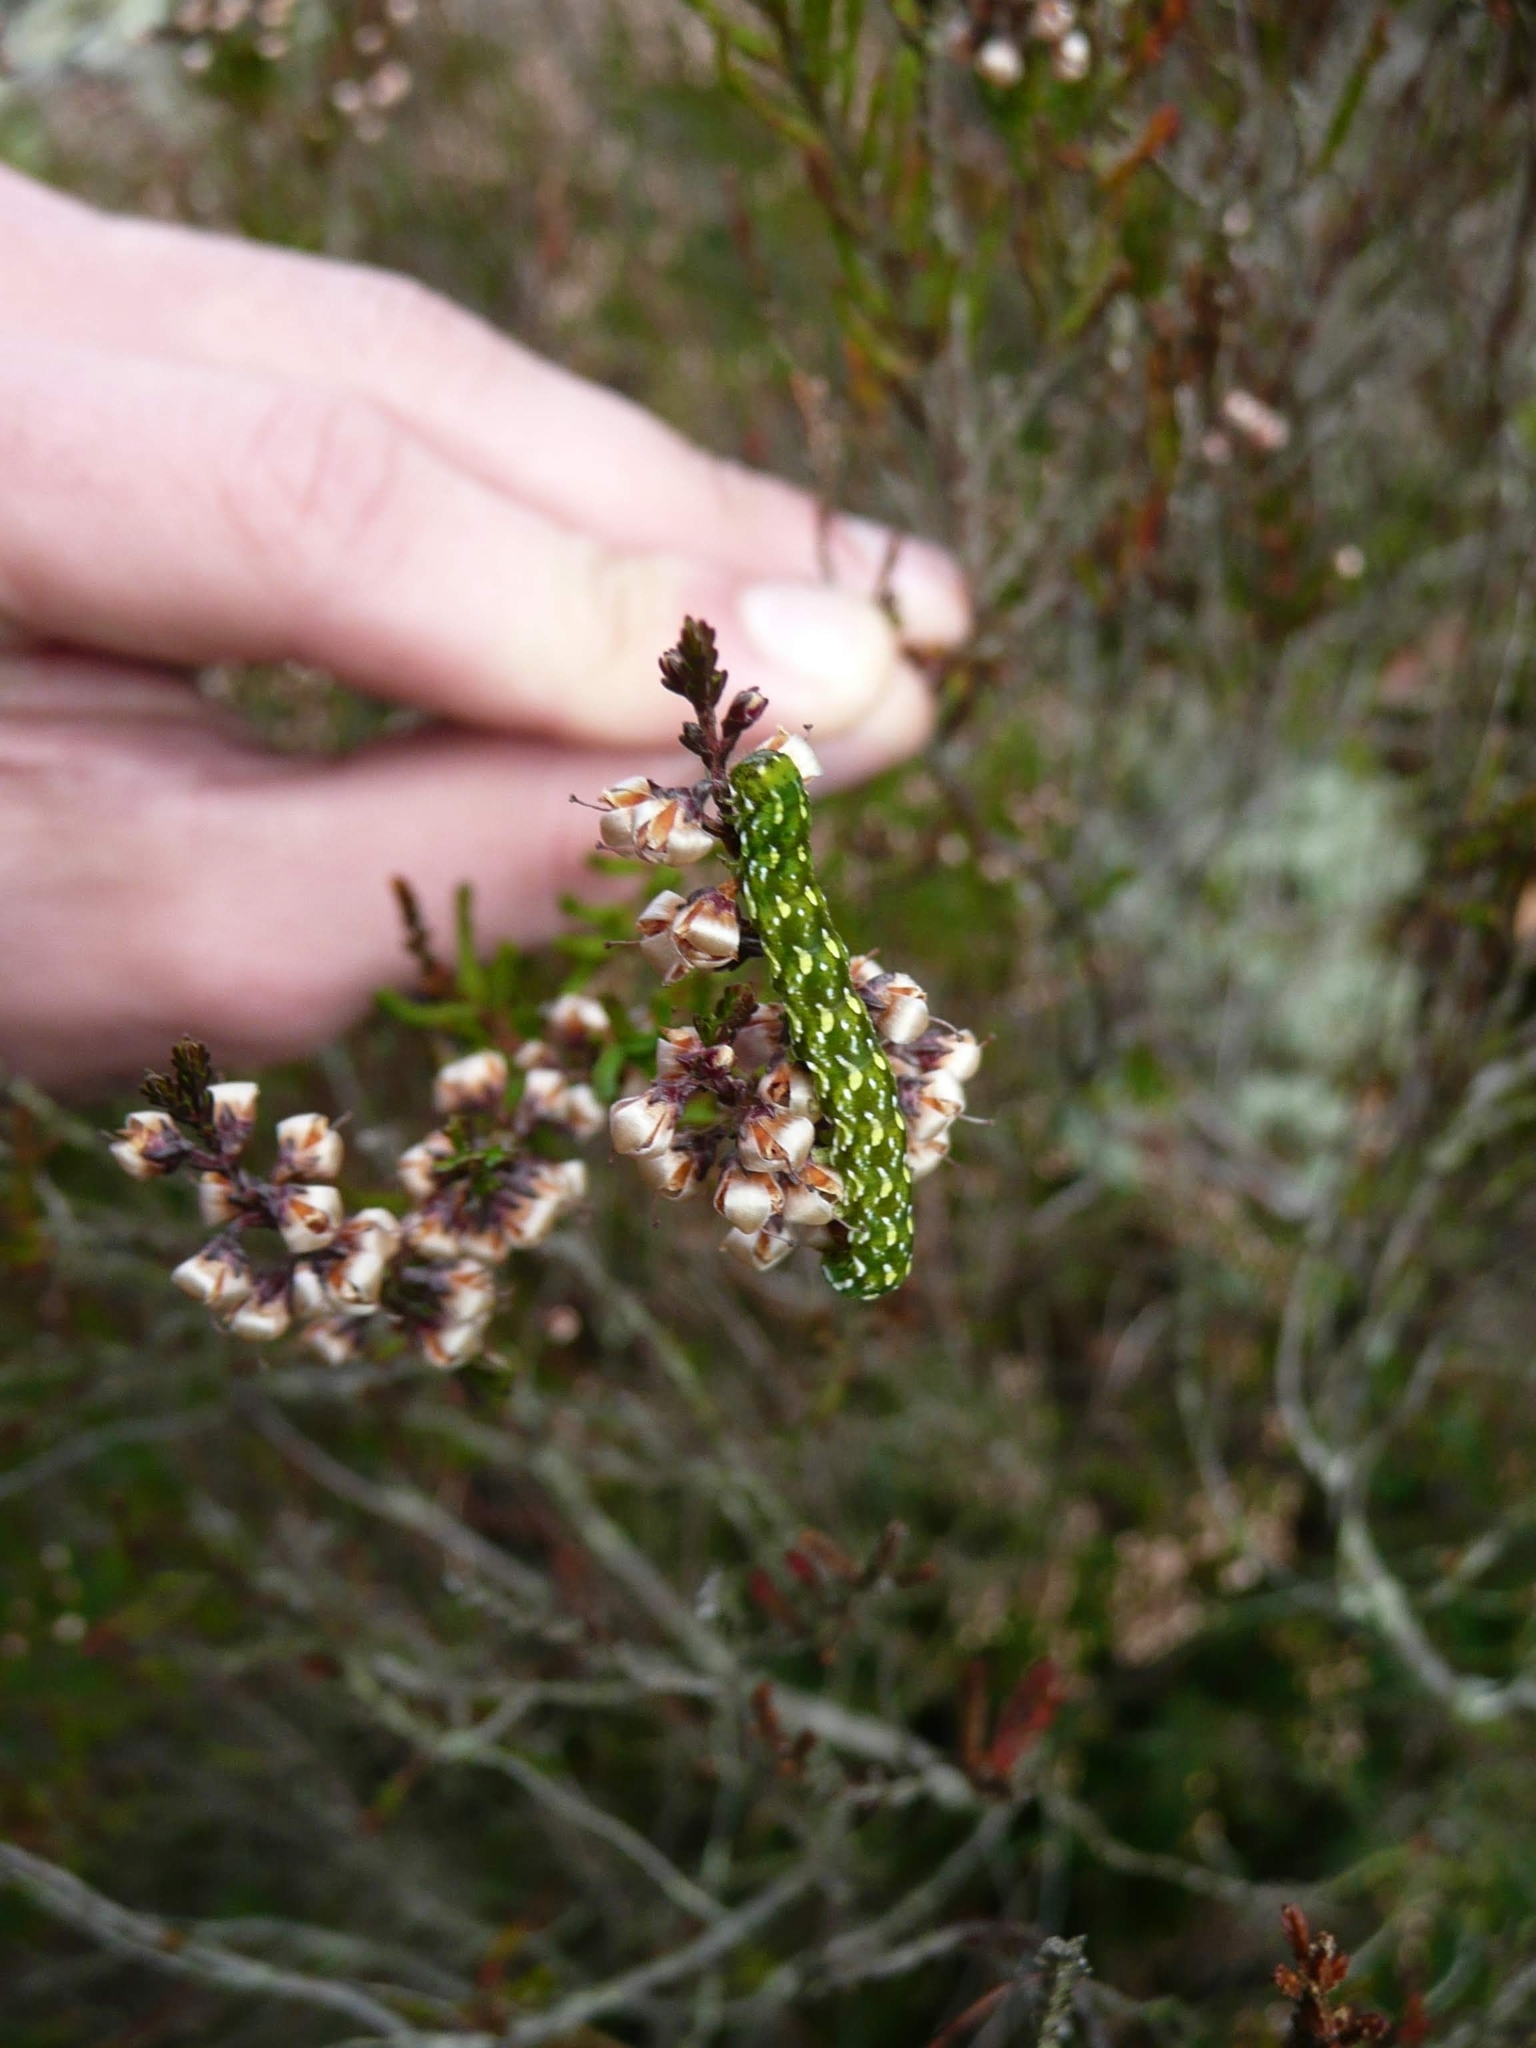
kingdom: Animalia
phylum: Arthropoda
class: Insecta
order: Lepidoptera
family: Noctuidae
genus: Anarta
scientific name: Anarta myrtilli
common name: Beautiful yellow underwing
